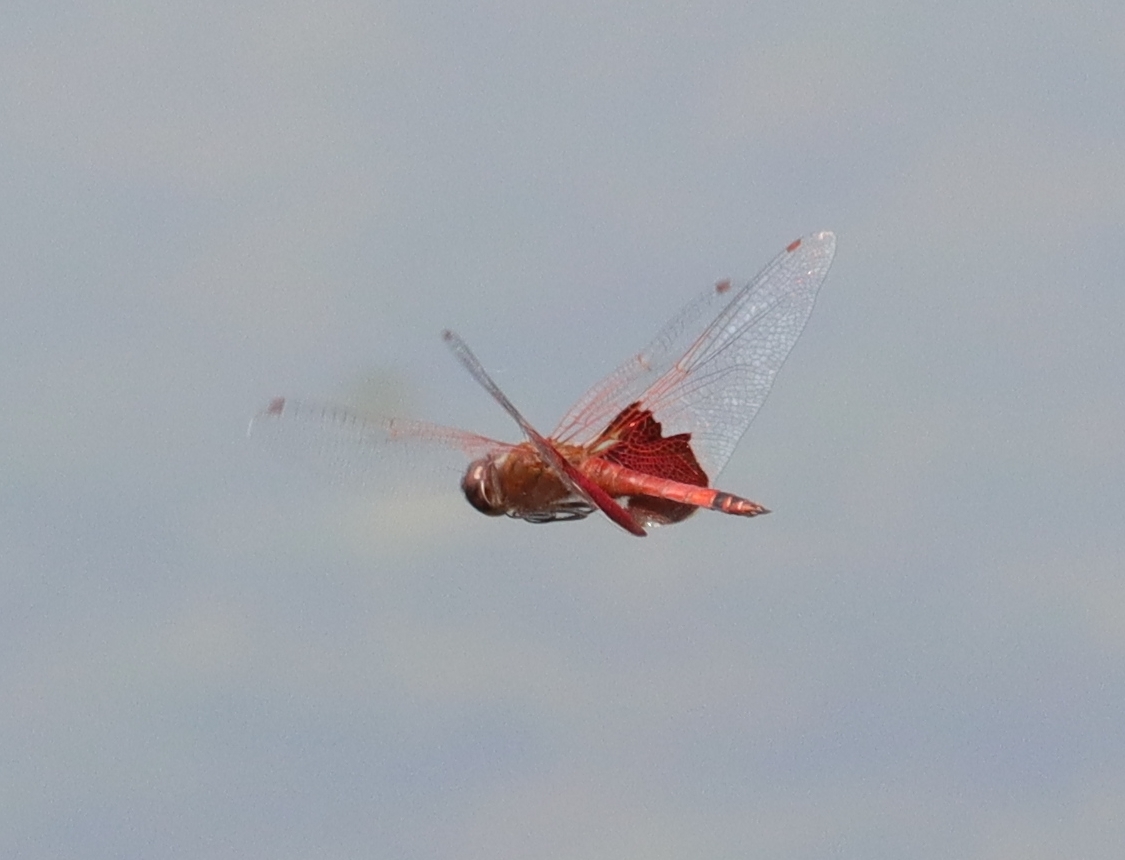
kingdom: Animalia
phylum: Arthropoda
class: Insecta
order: Odonata
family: Libellulidae
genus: Tramea
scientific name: Tramea carolina
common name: Carolina saddlebags
